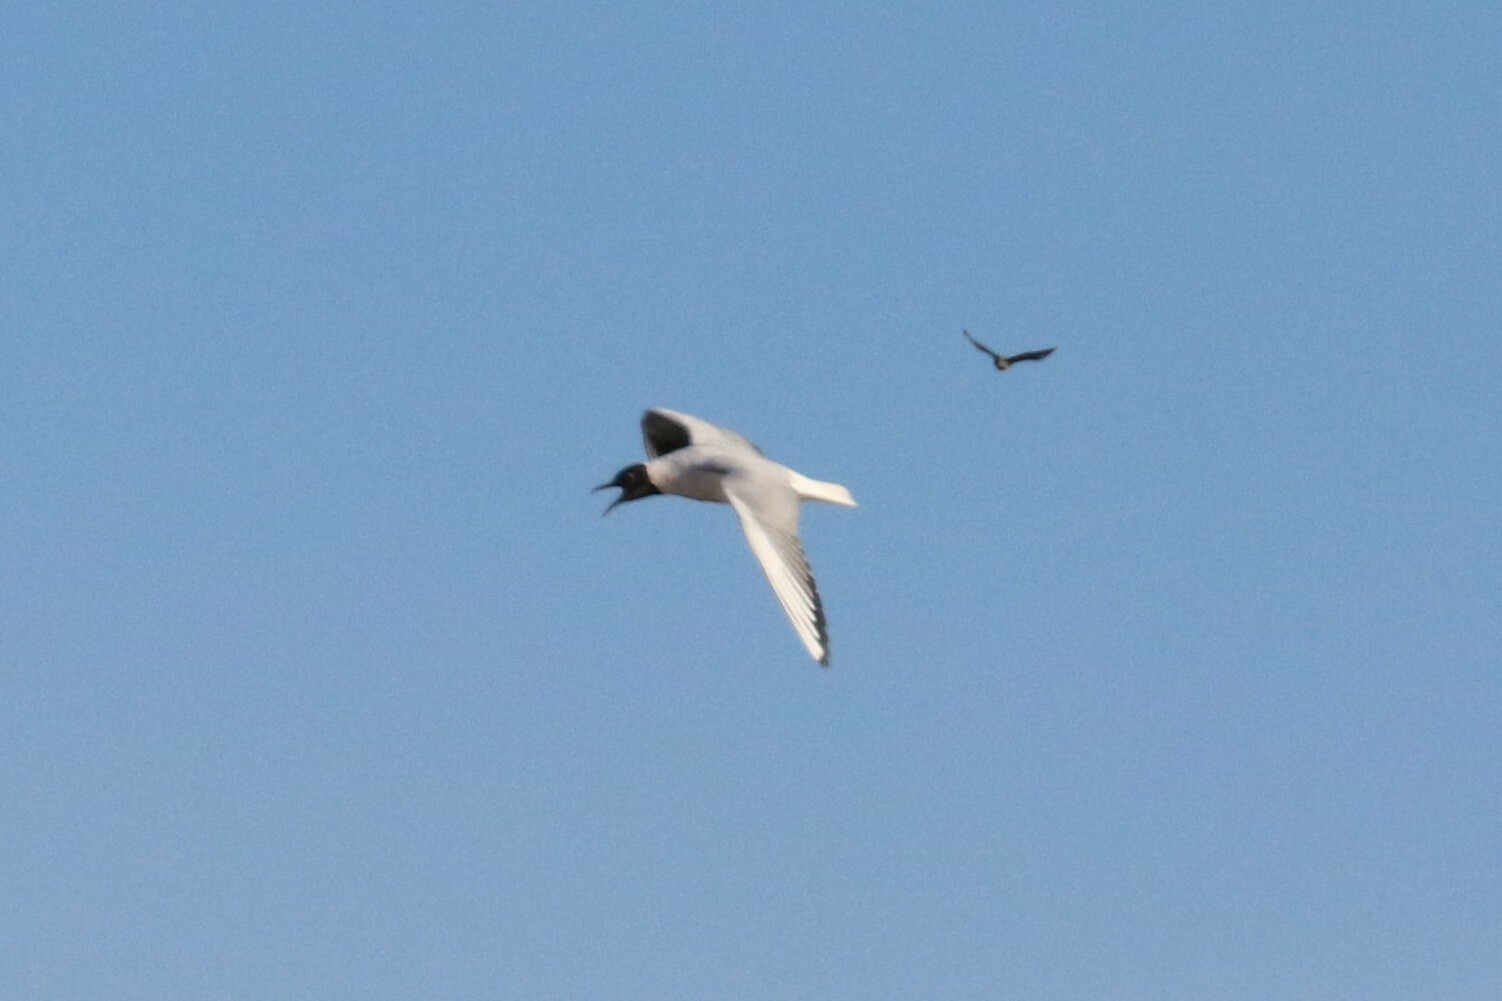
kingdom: Animalia
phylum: Chordata
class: Aves
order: Charadriiformes
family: Laridae
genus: Chroicocephalus
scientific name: Chroicocephalus ridibundus
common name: Black-headed gull
